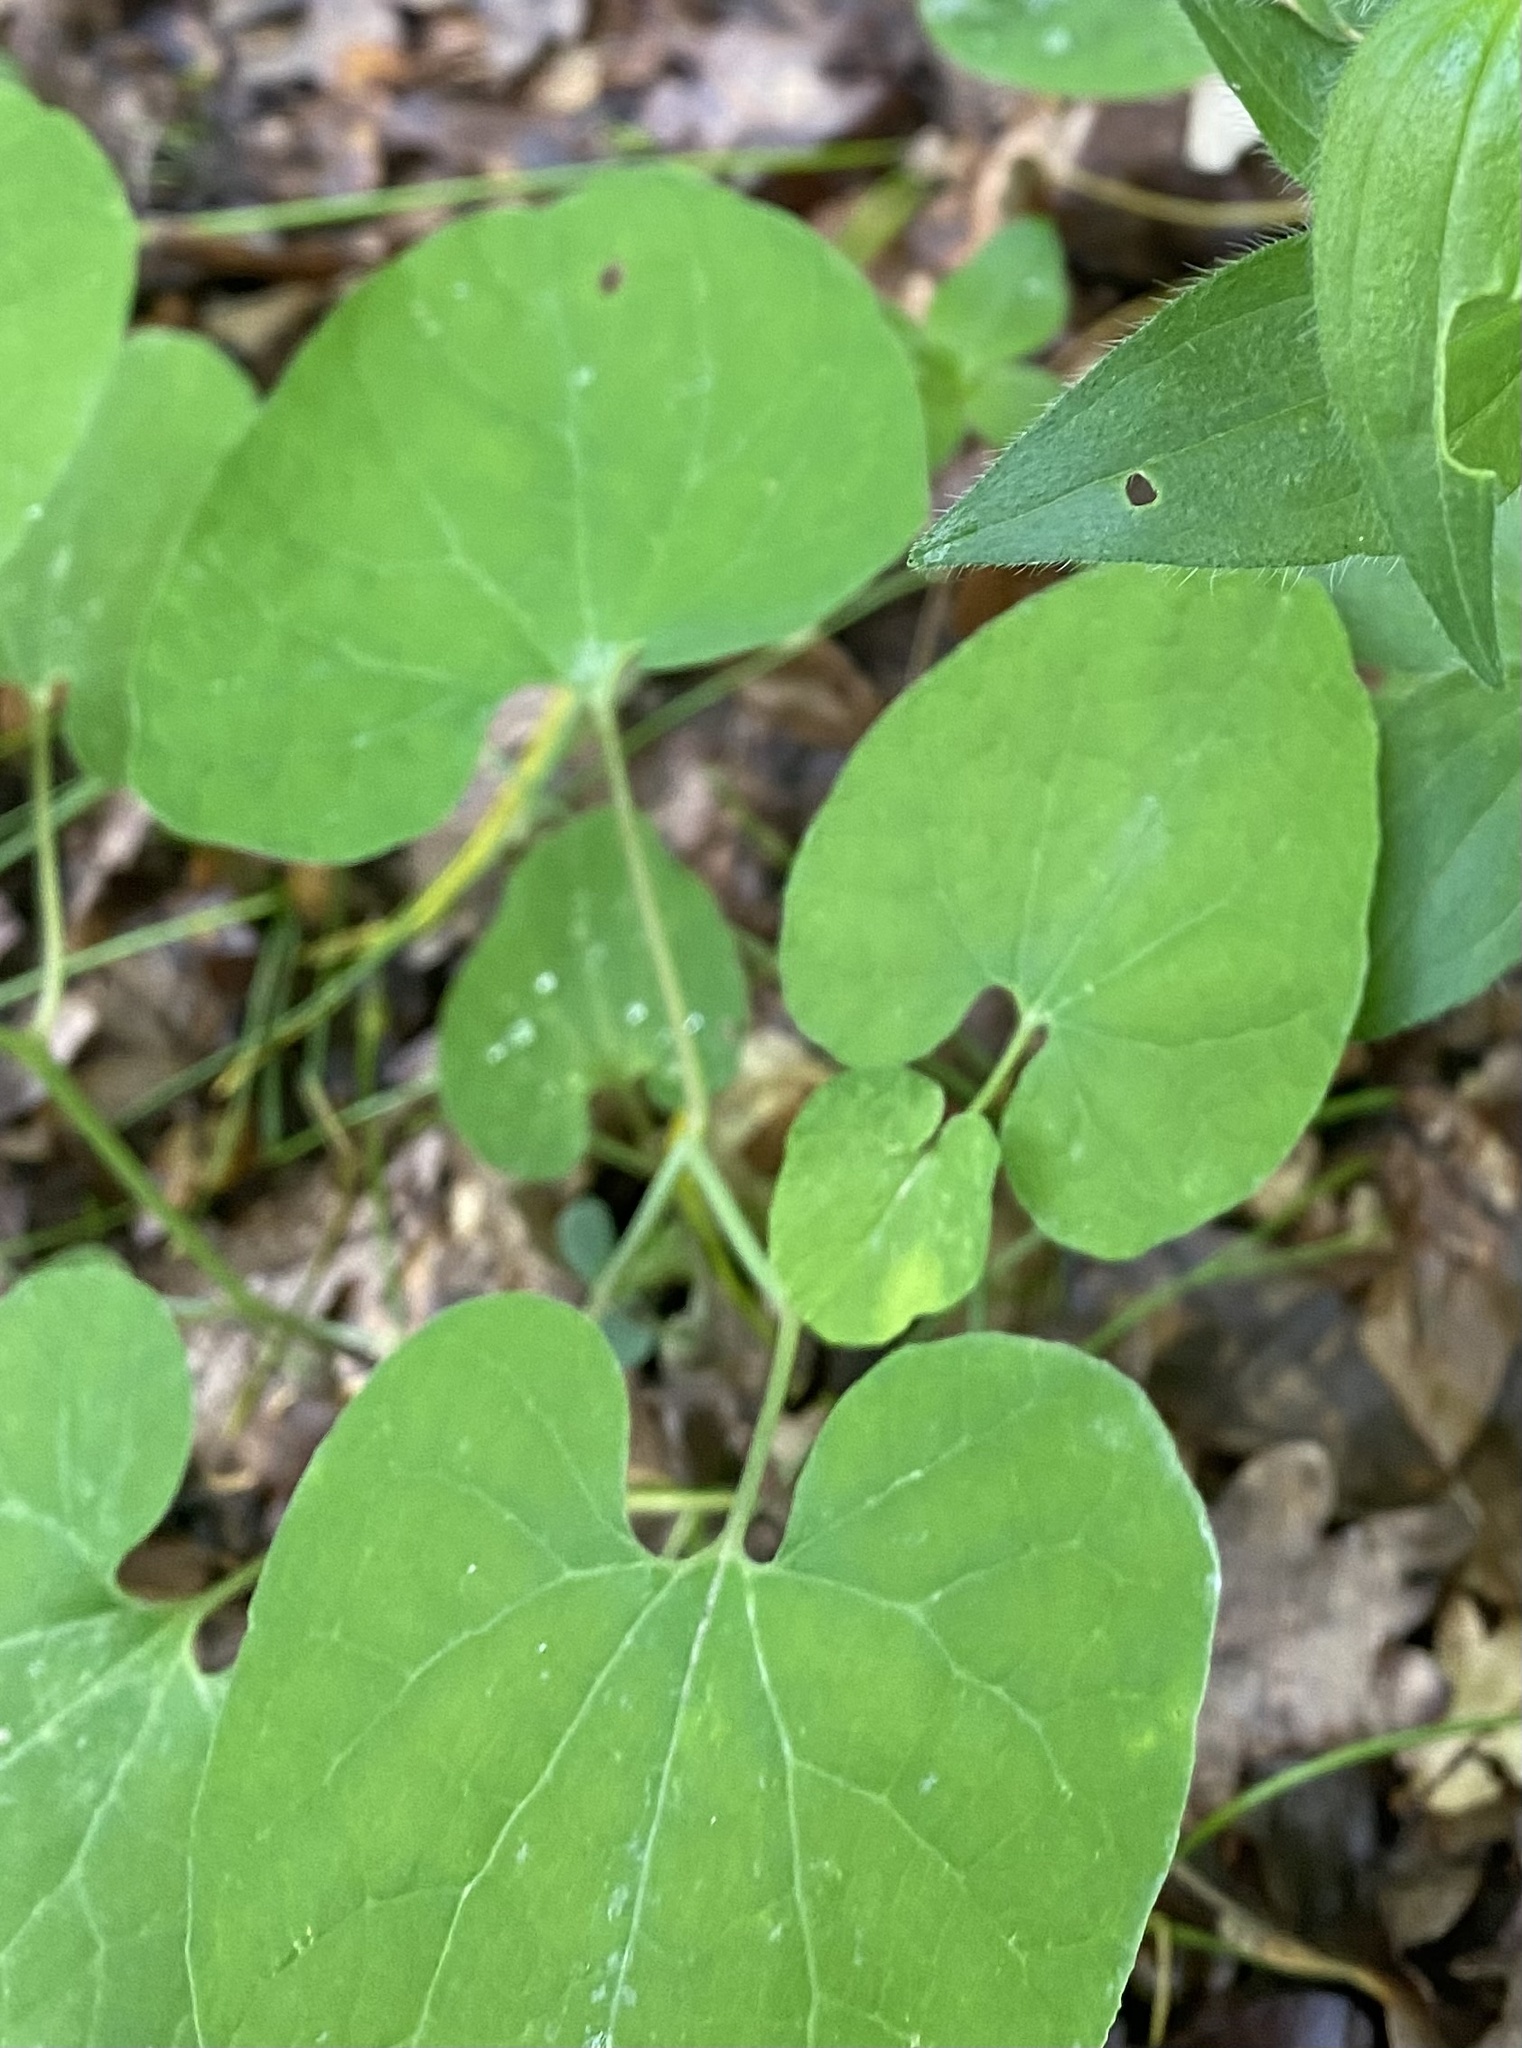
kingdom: Plantae
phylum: Tracheophyta
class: Magnoliopsida
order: Piperales
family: Aristolochiaceae
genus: Aristolochia
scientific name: Aristolochia steupii
